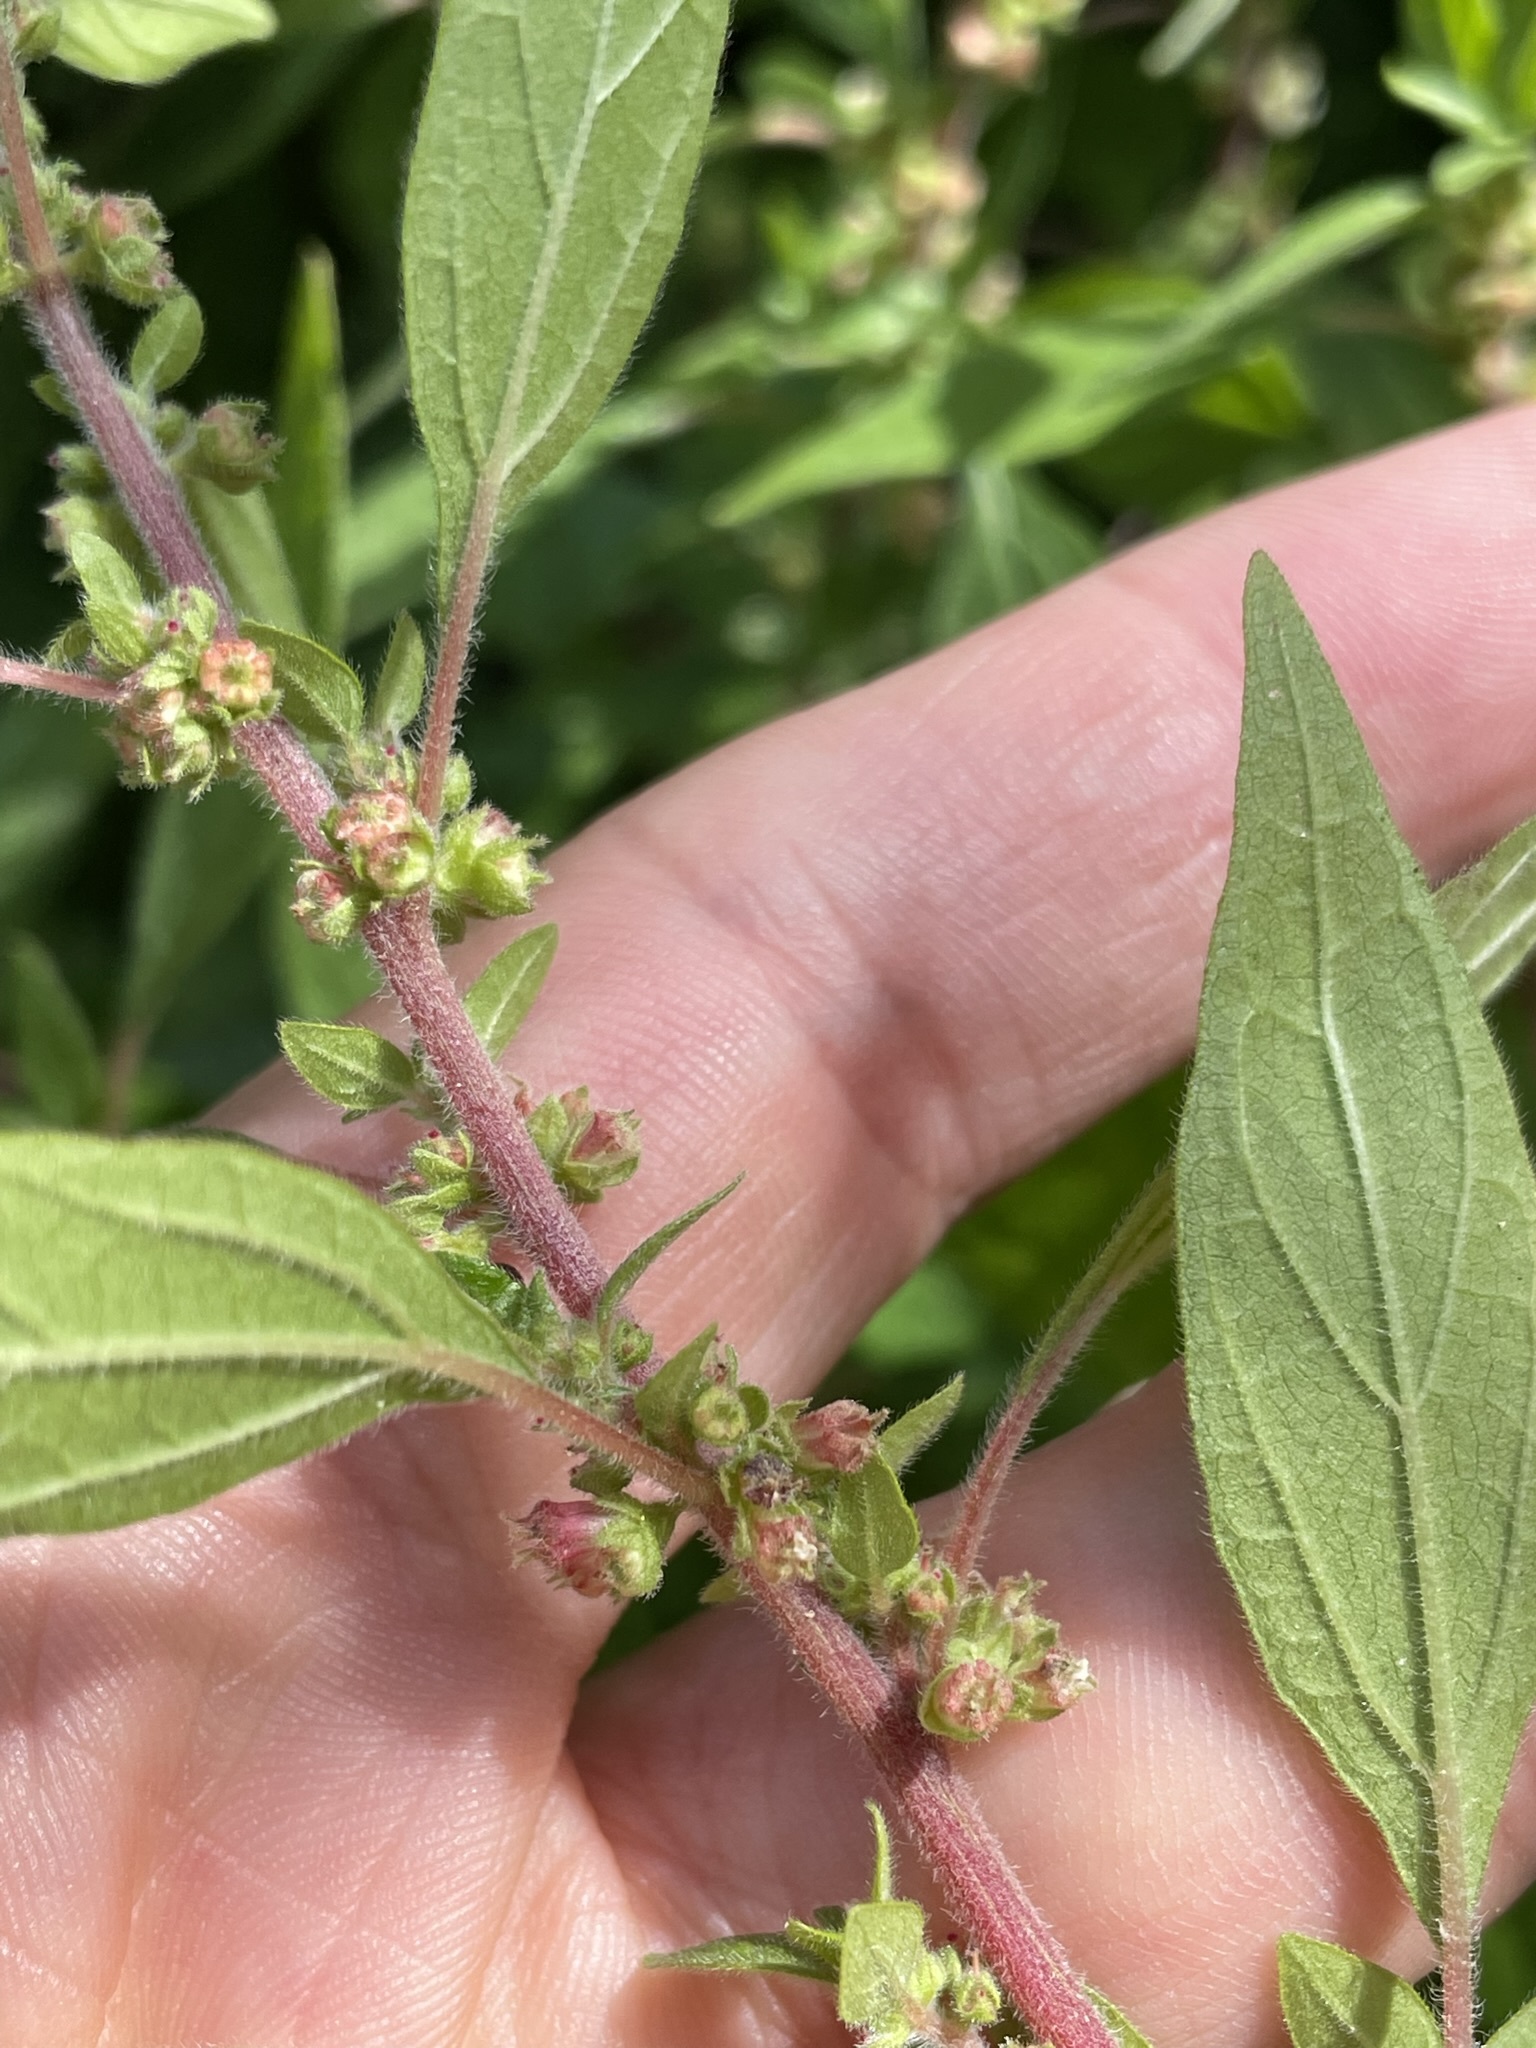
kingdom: Plantae
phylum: Tracheophyta
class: Magnoliopsida
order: Rosales
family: Urticaceae
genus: Parietaria
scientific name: Parietaria judaica
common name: Pellitory-of-the-wall
